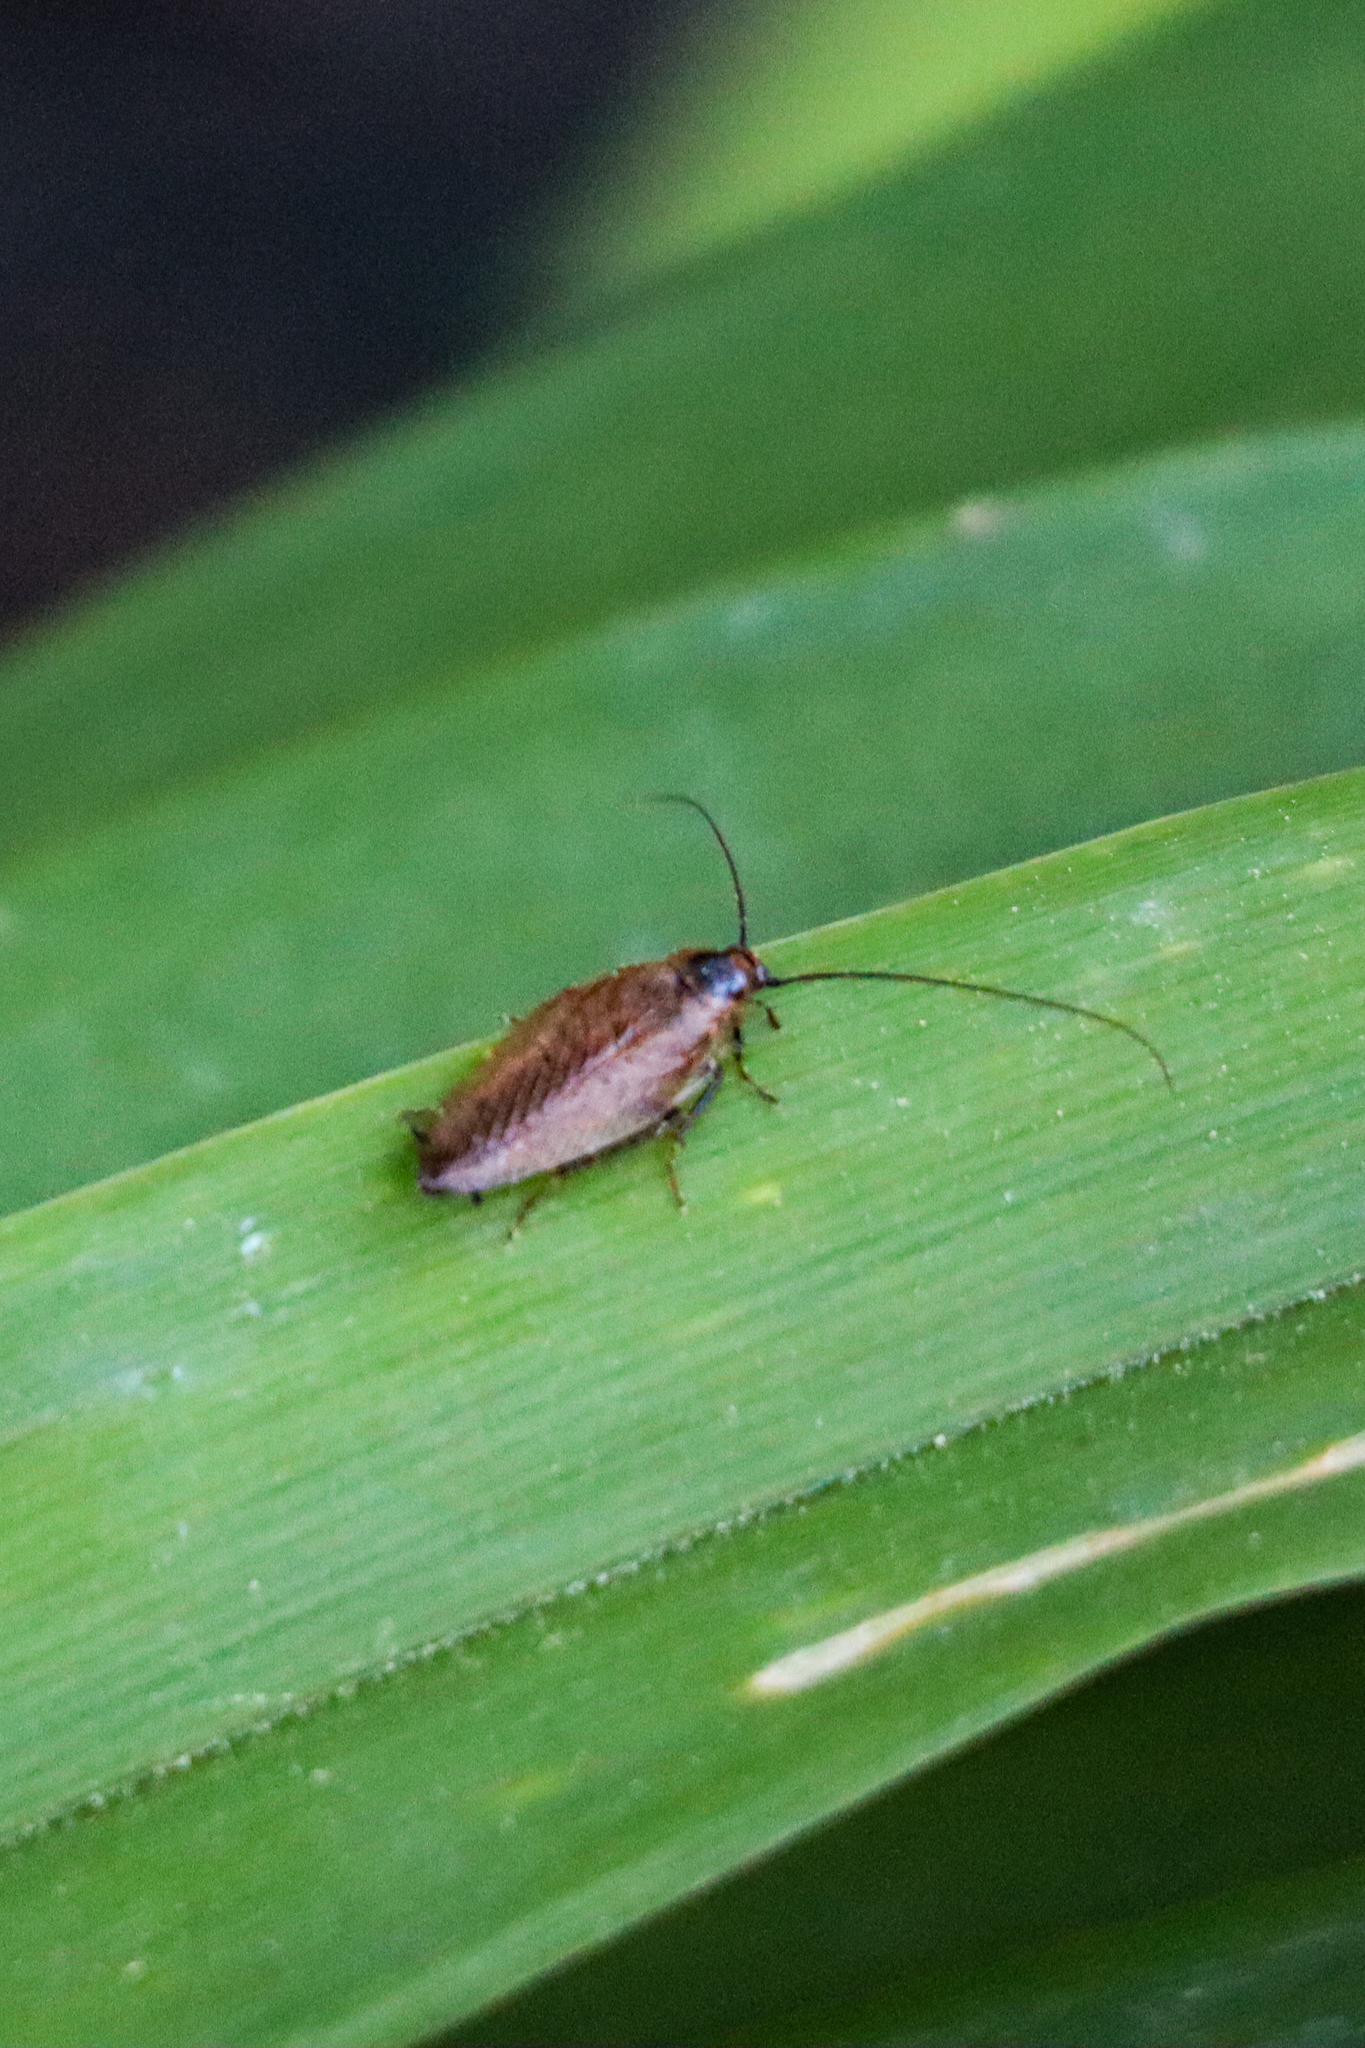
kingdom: Animalia
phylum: Arthropoda
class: Insecta
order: Blattodea
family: Ectobiidae
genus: Ectobius
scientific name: Ectobius lapponicus
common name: Dusky cockroach
